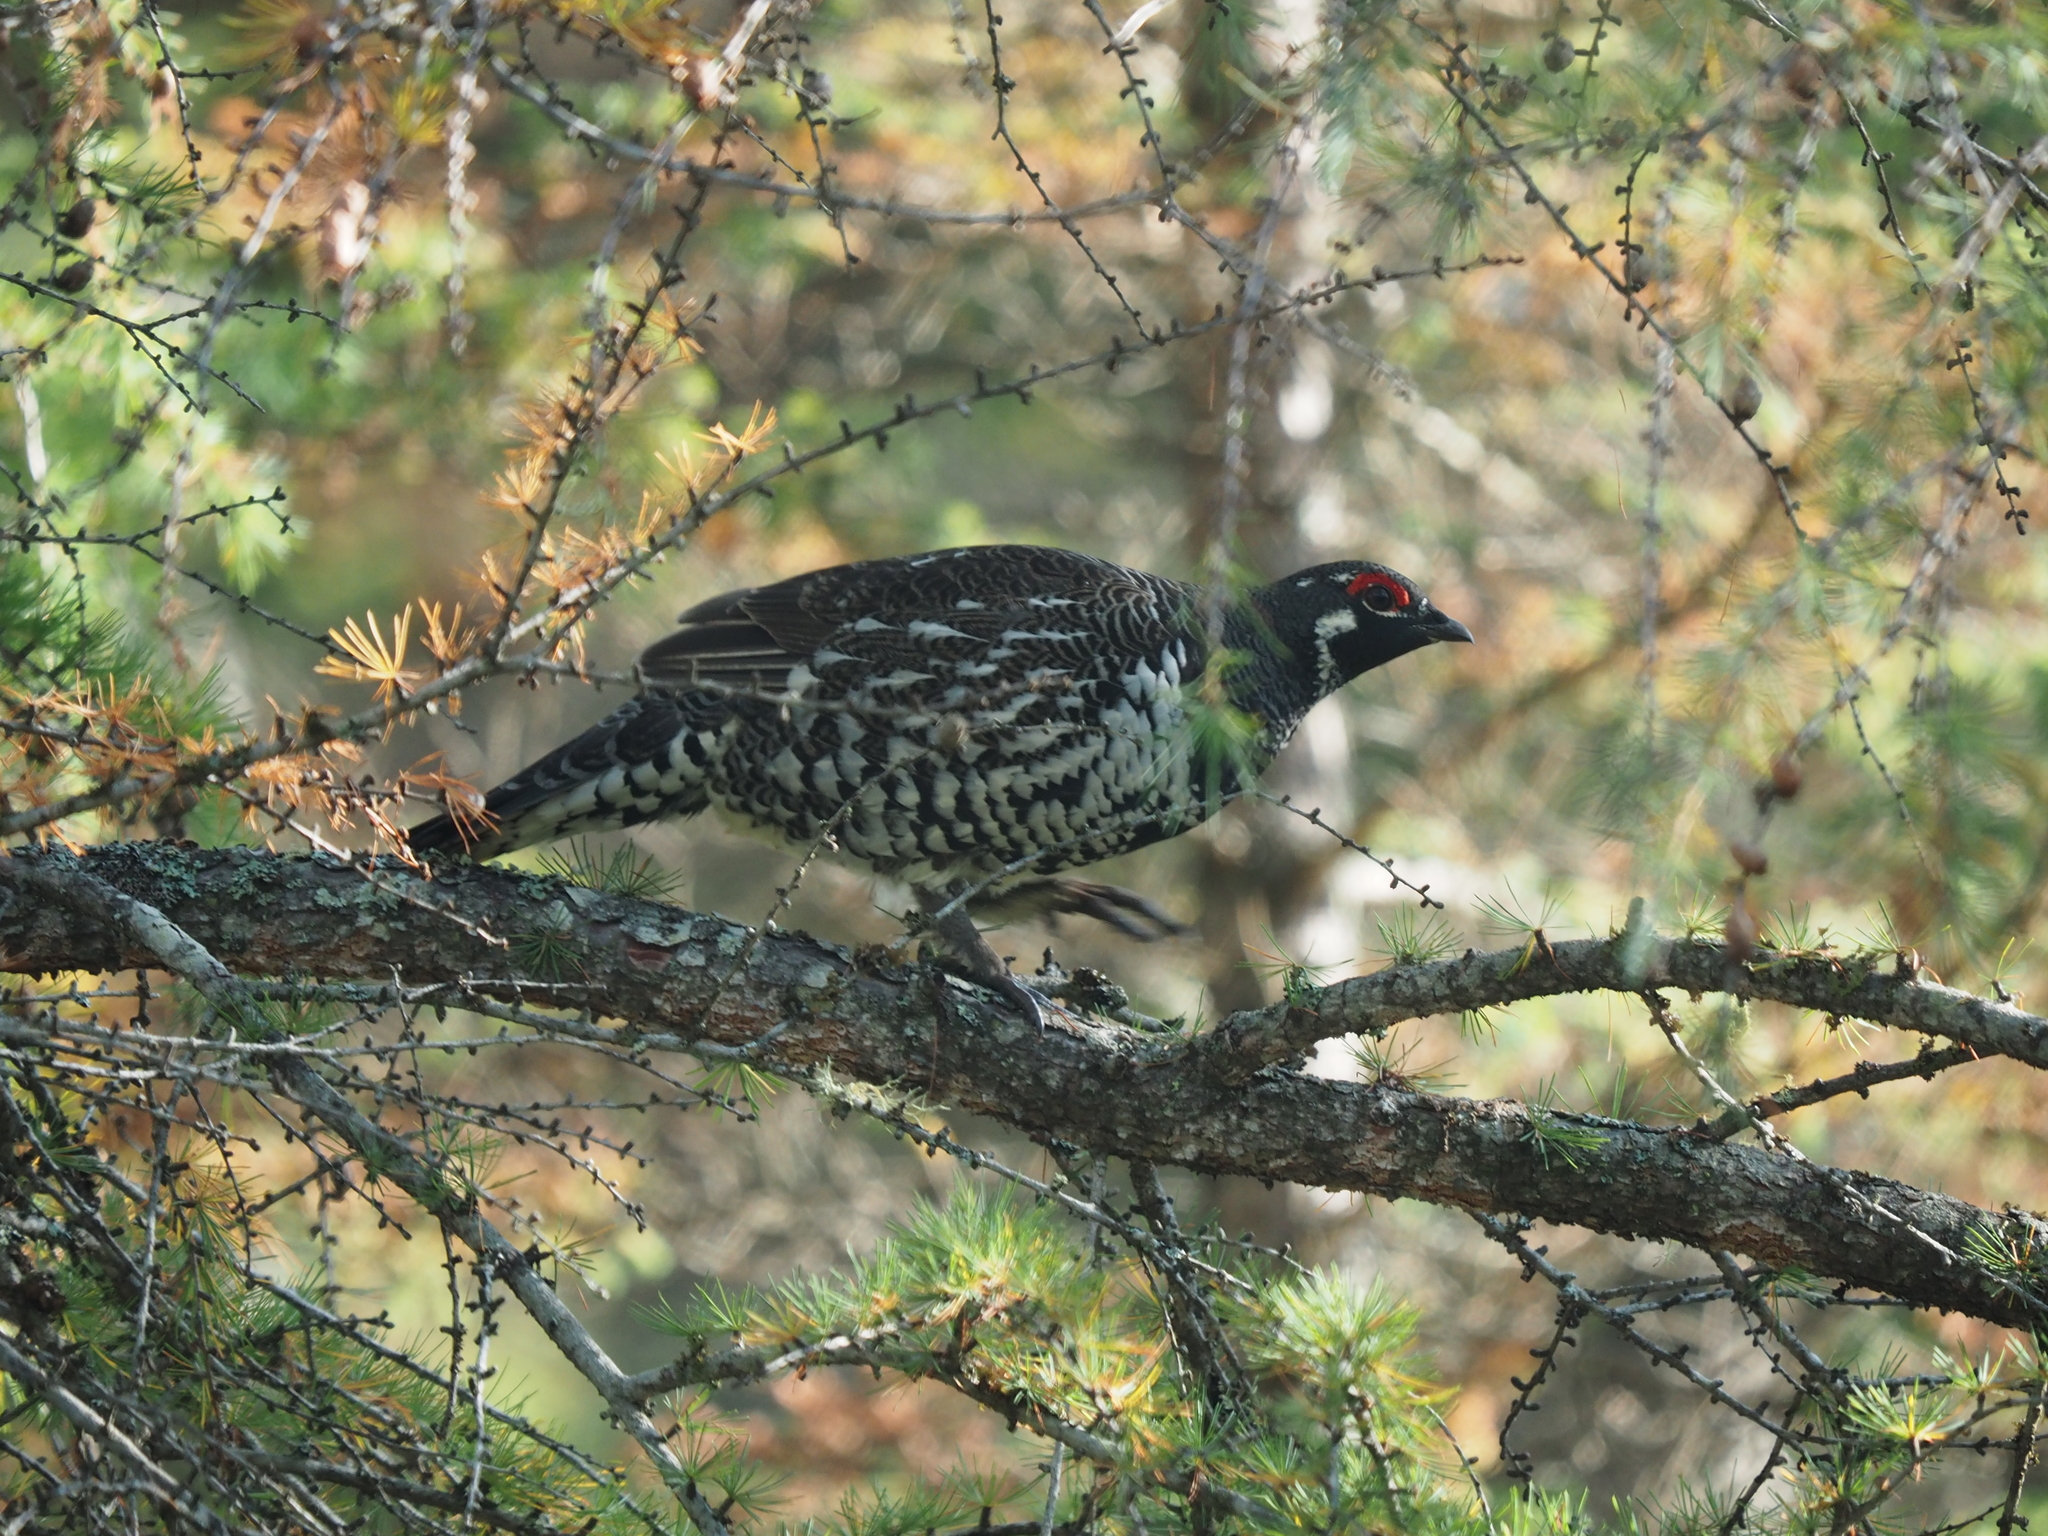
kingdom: Animalia
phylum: Chordata
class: Aves
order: Galliformes
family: Phasianidae
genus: Canachites
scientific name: Canachites canadensis
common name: Spruce grouse
